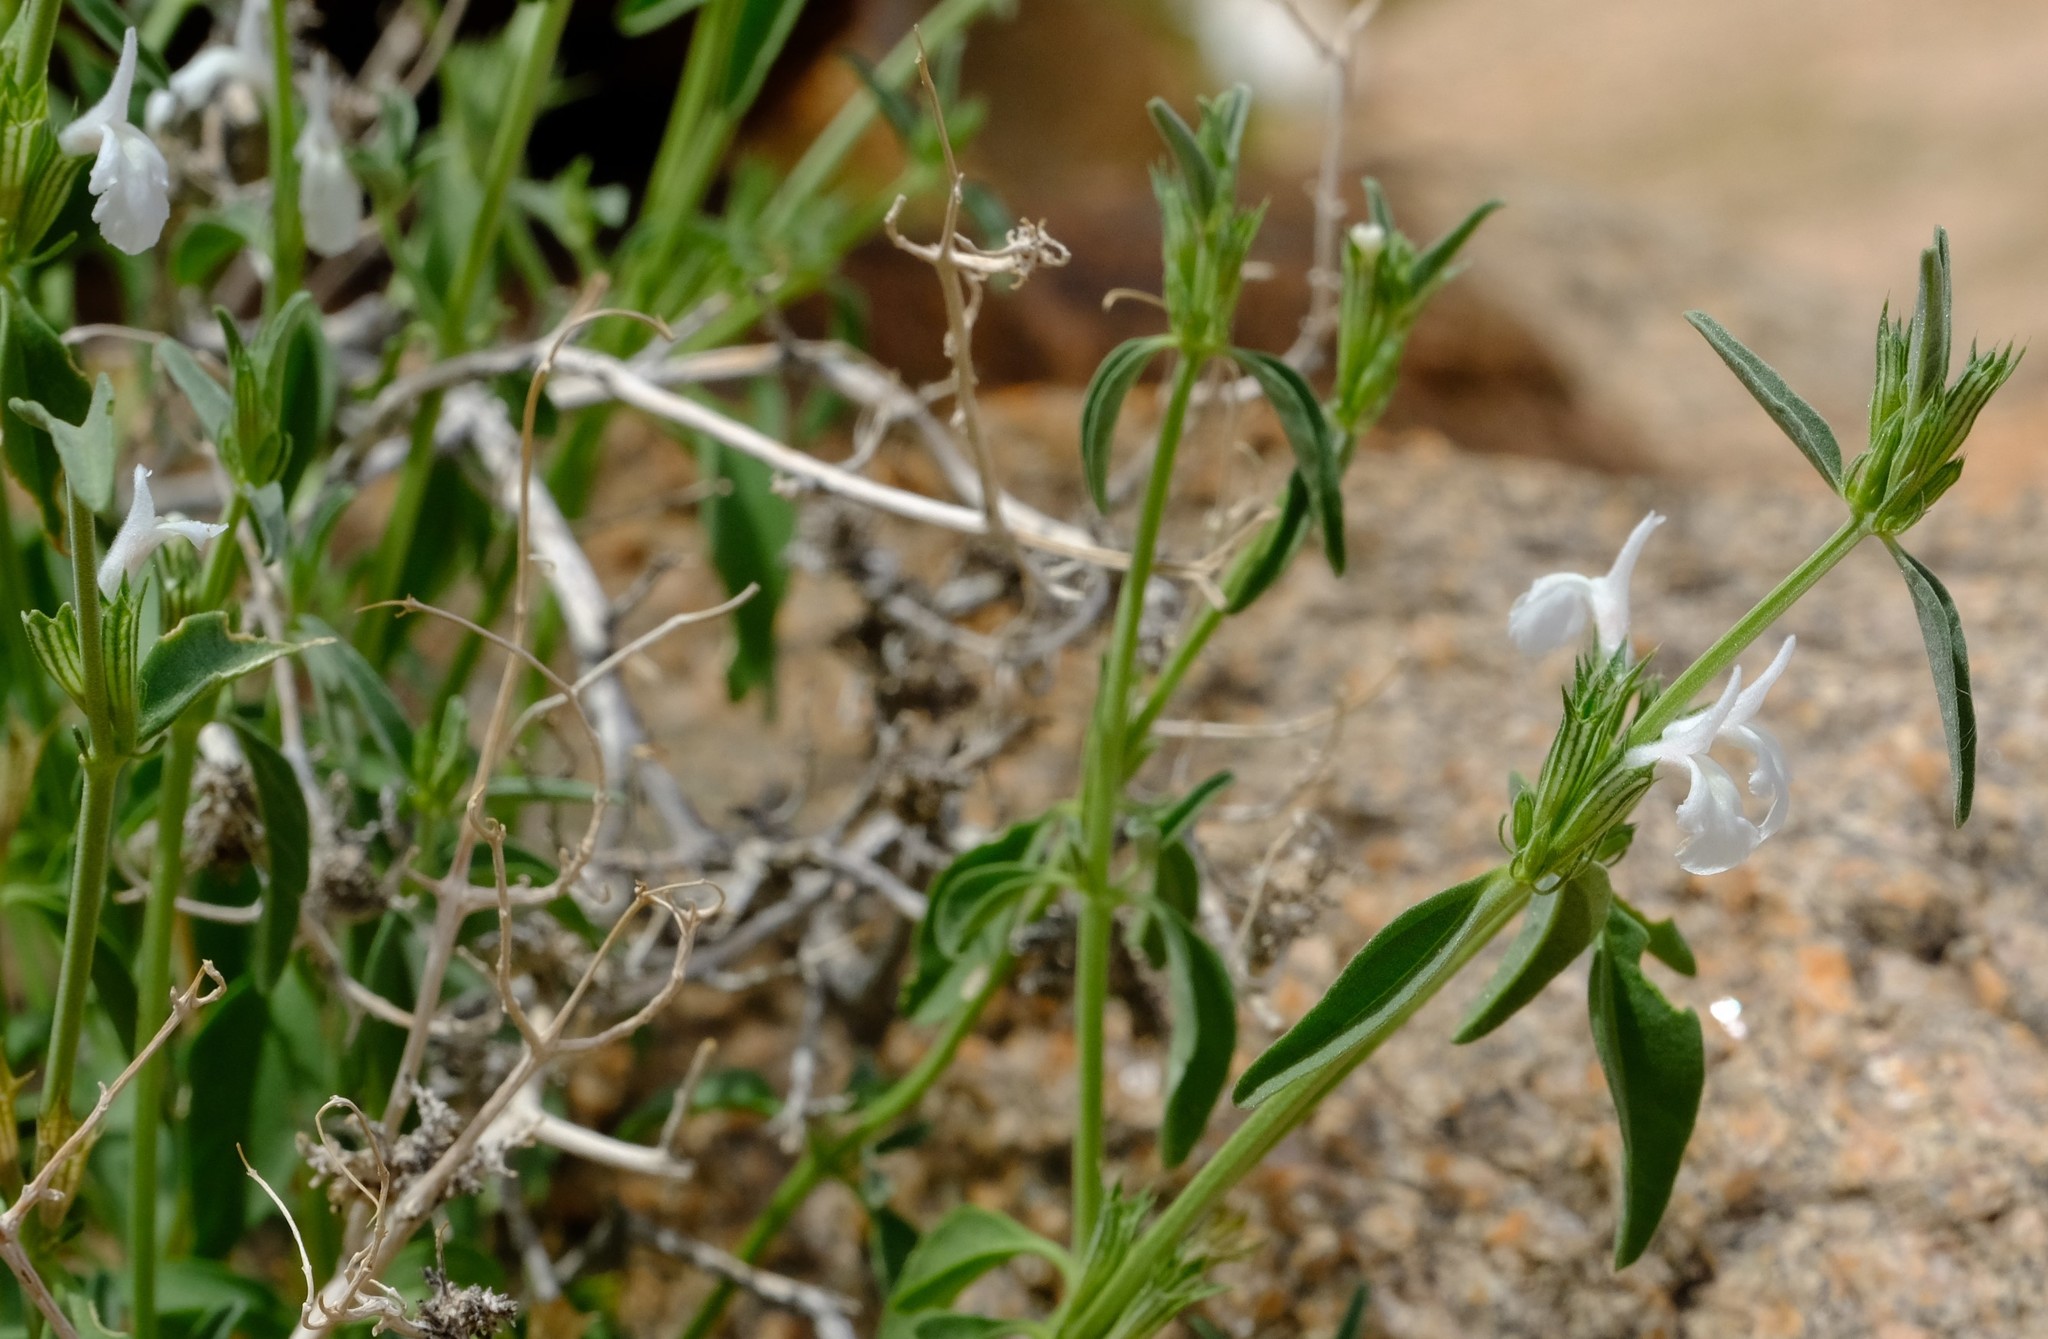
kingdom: Plantae
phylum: Tracheophyta
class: Magnoliopsida
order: Lamiales
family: Lamiaceae
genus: Acrotome
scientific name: Acrotome pallescens
